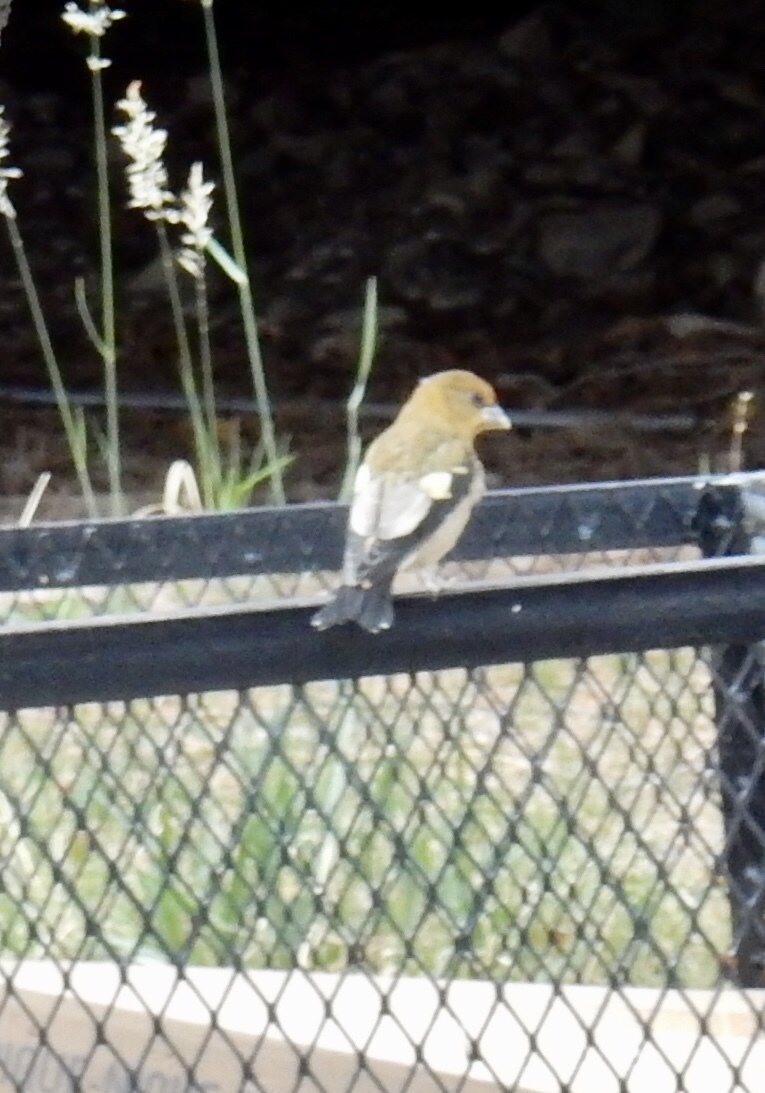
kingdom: Animalia
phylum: Chordata
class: Aves
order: Passeriformes
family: Fringillidae
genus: Hesperiphona
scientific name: Hesperiphona vespertina
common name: Evening grosbeak
